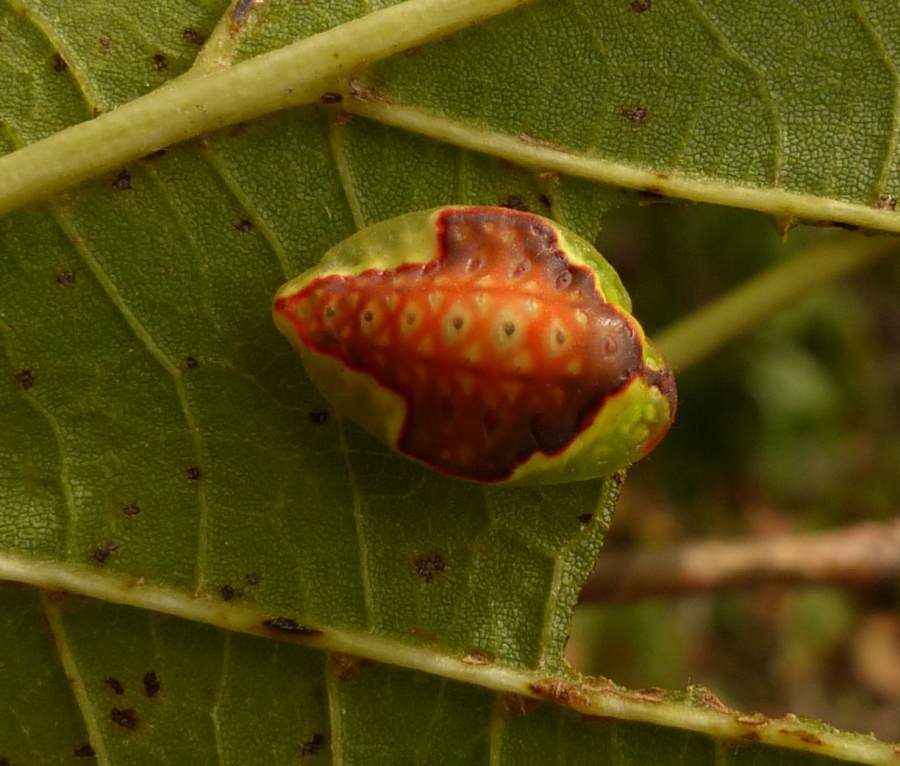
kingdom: Animalia
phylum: Arthropoda
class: Insecta
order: Lepidoptera
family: Limacodidae
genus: Tortricidia
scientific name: Tortricidia pallida
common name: Red-crossed button slug moth
